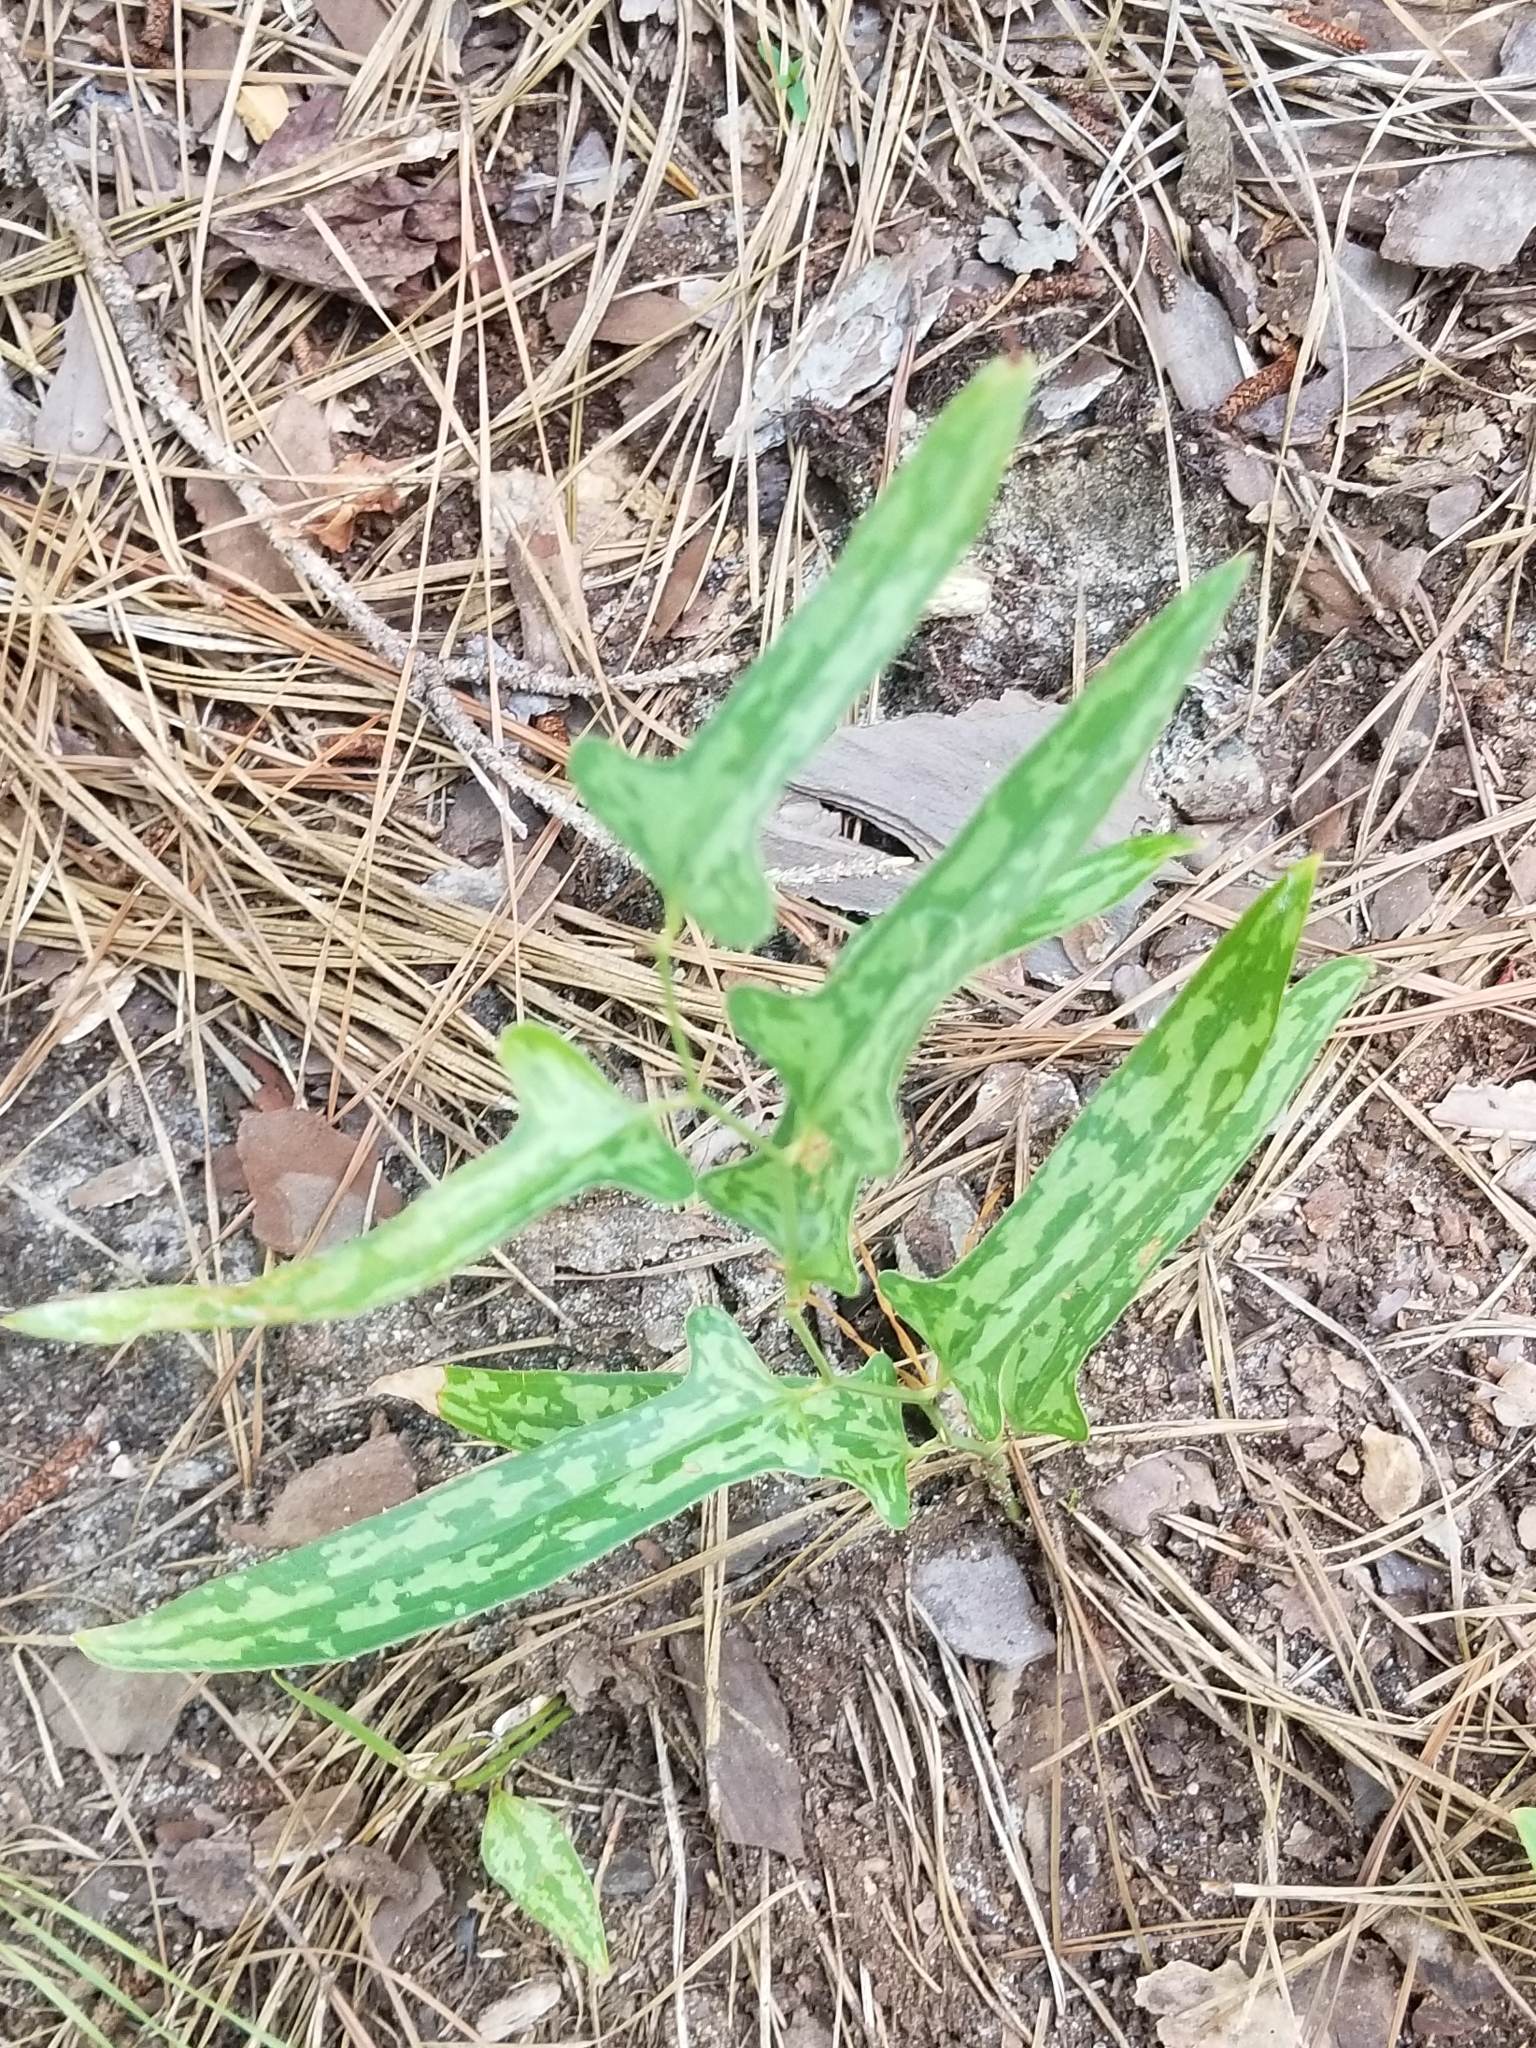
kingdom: Plantae
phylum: Tracheophyta
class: Liliopsida
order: Liliales
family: Smilacaceae
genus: Smilax
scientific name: Smilax bona-nox
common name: Catbrier
